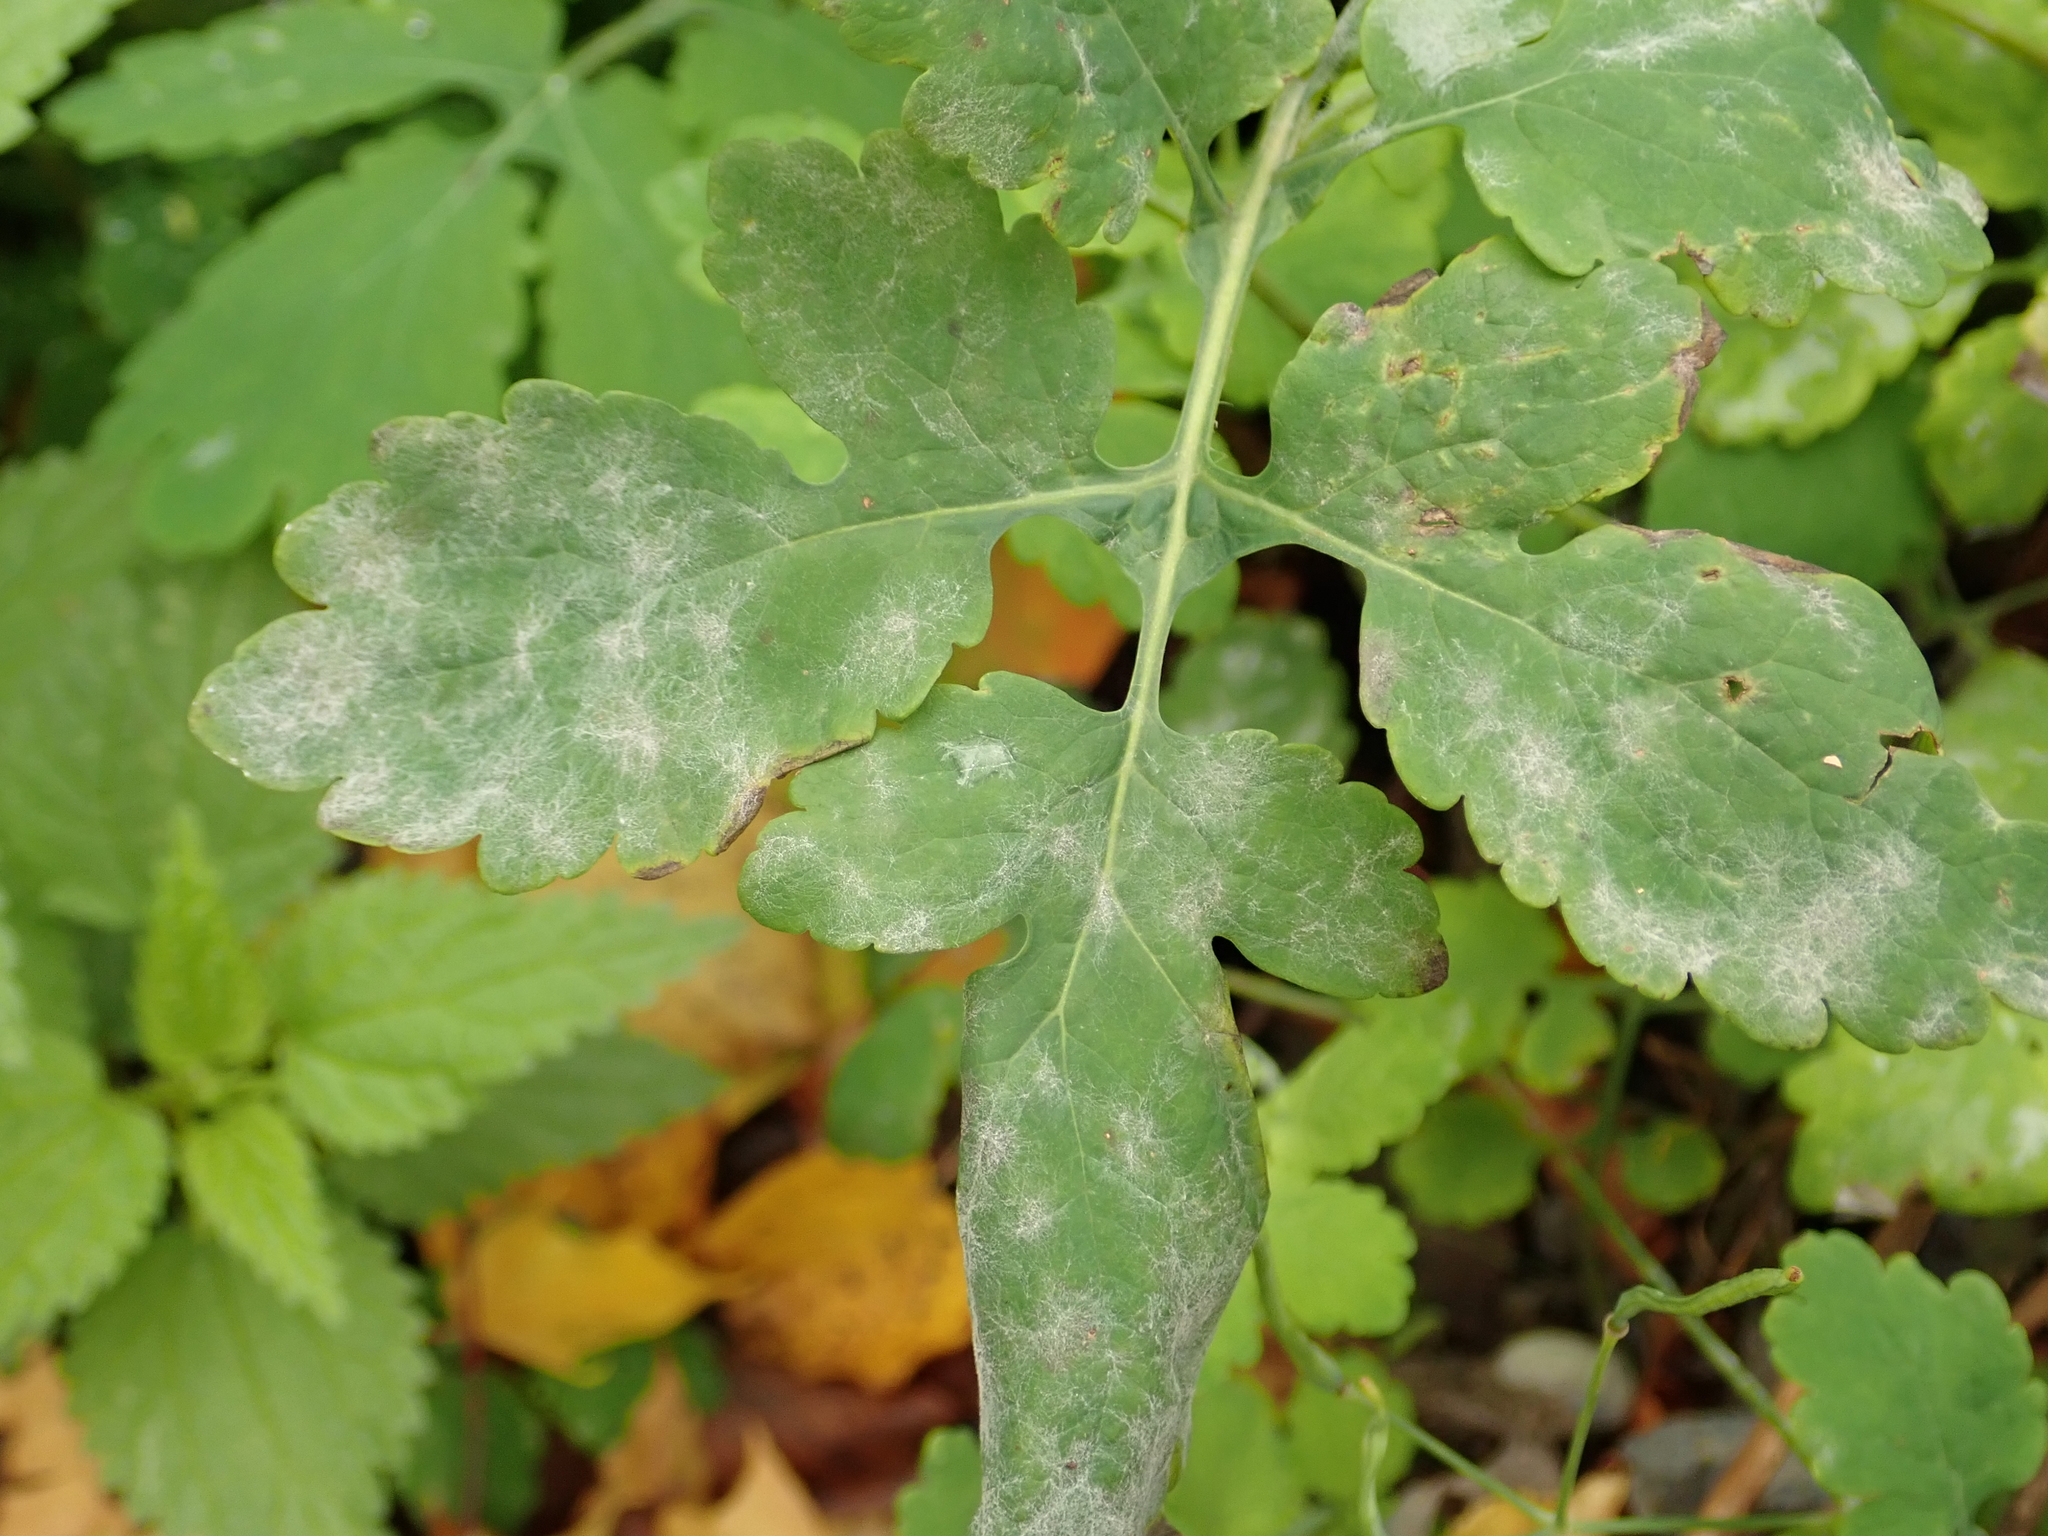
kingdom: Plantae
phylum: Tracheophyta
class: Magnoliopsida
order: Ranunculales
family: Papaveraceae
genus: Chelidonium
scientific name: Chelidonium majus
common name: Greater celandine
